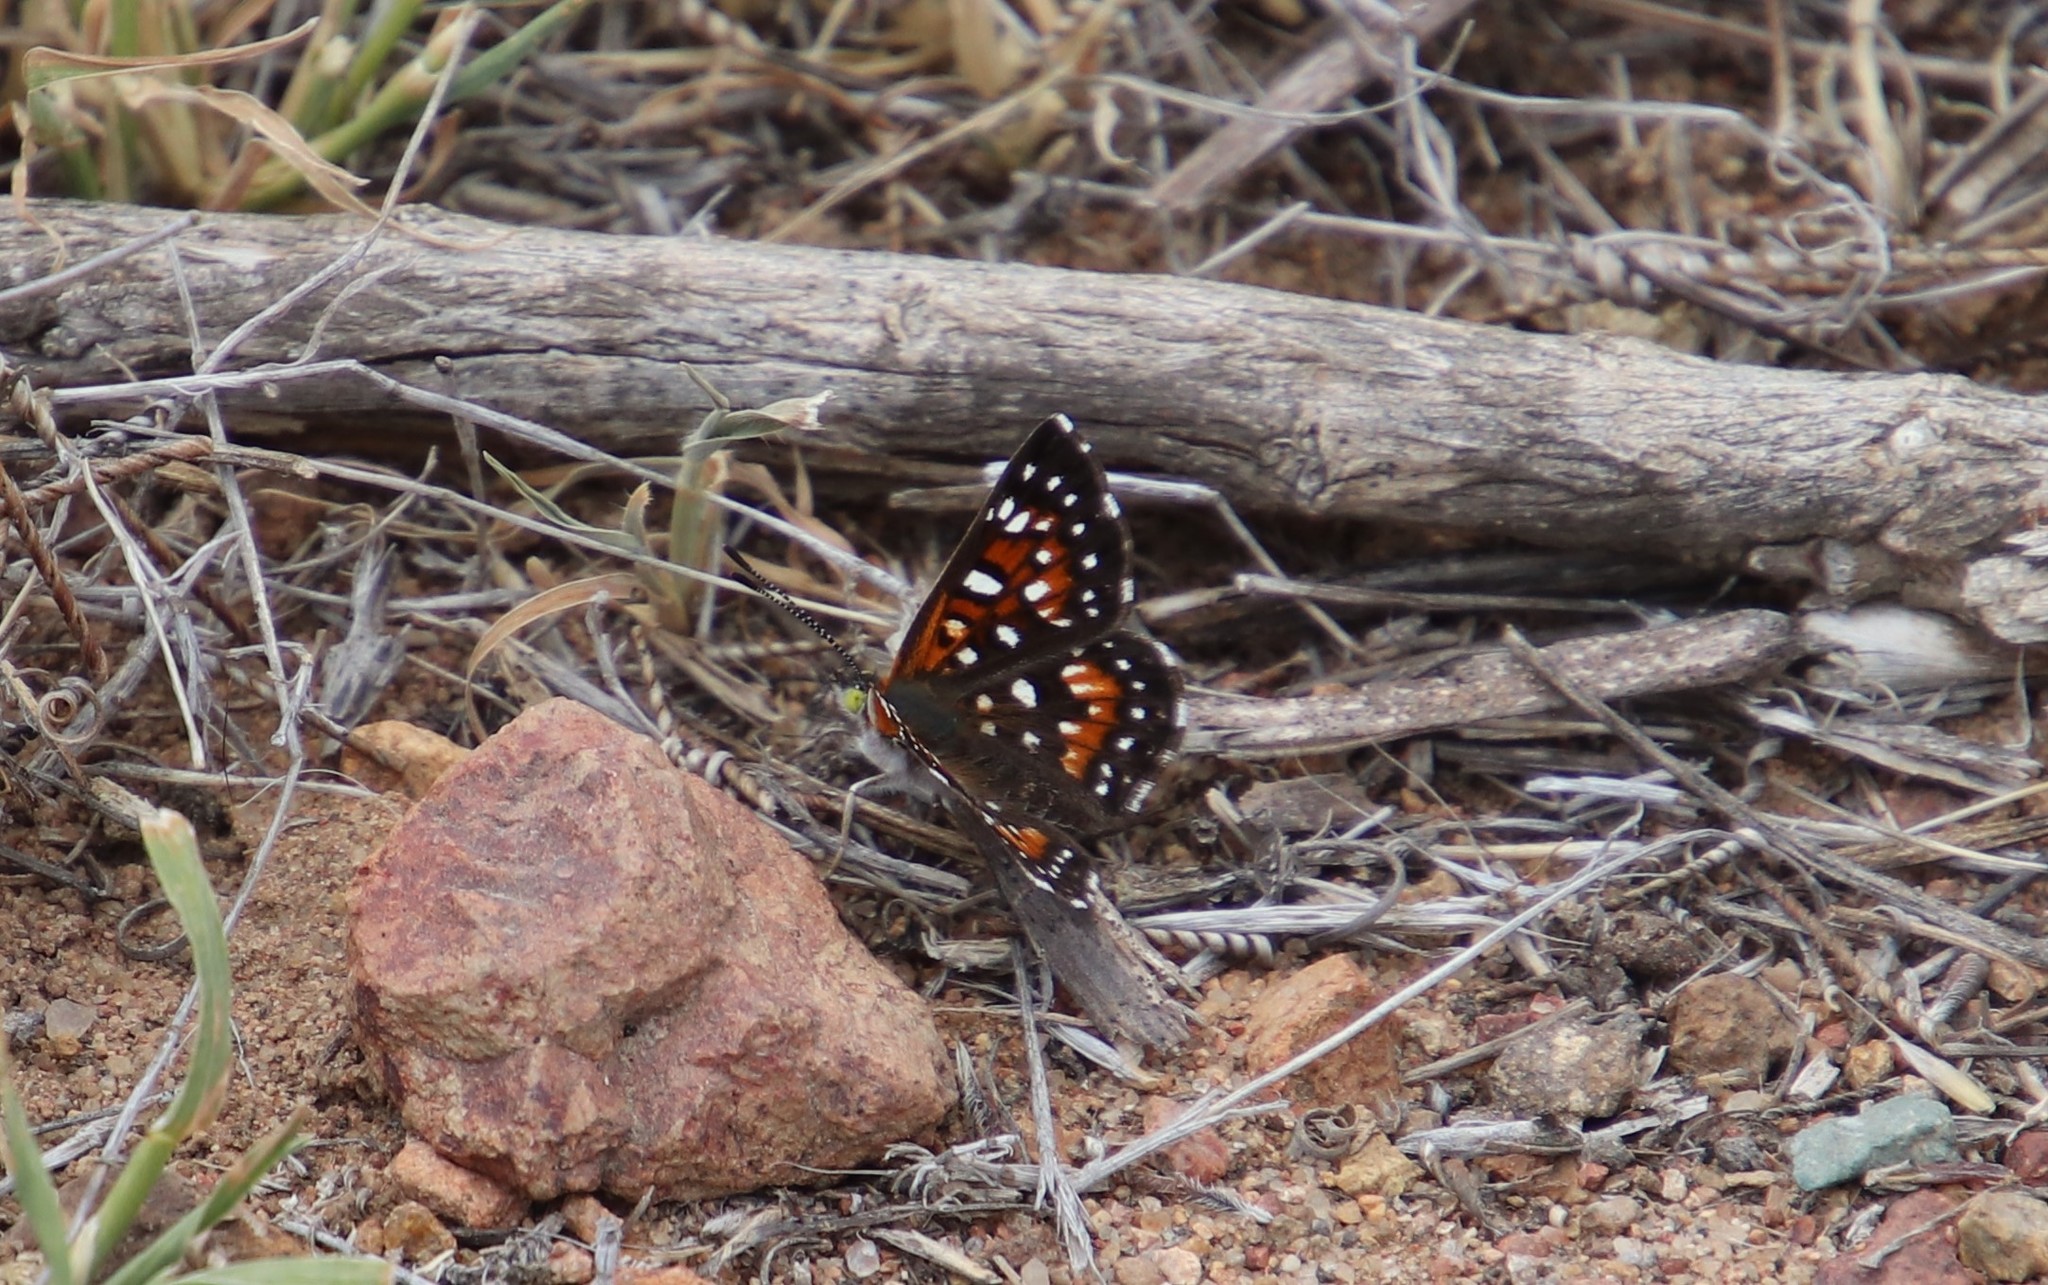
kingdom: Animalia
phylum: Arthropoda
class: Insecta
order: Lepidoptera
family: Riodinidae
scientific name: Riodinidae
